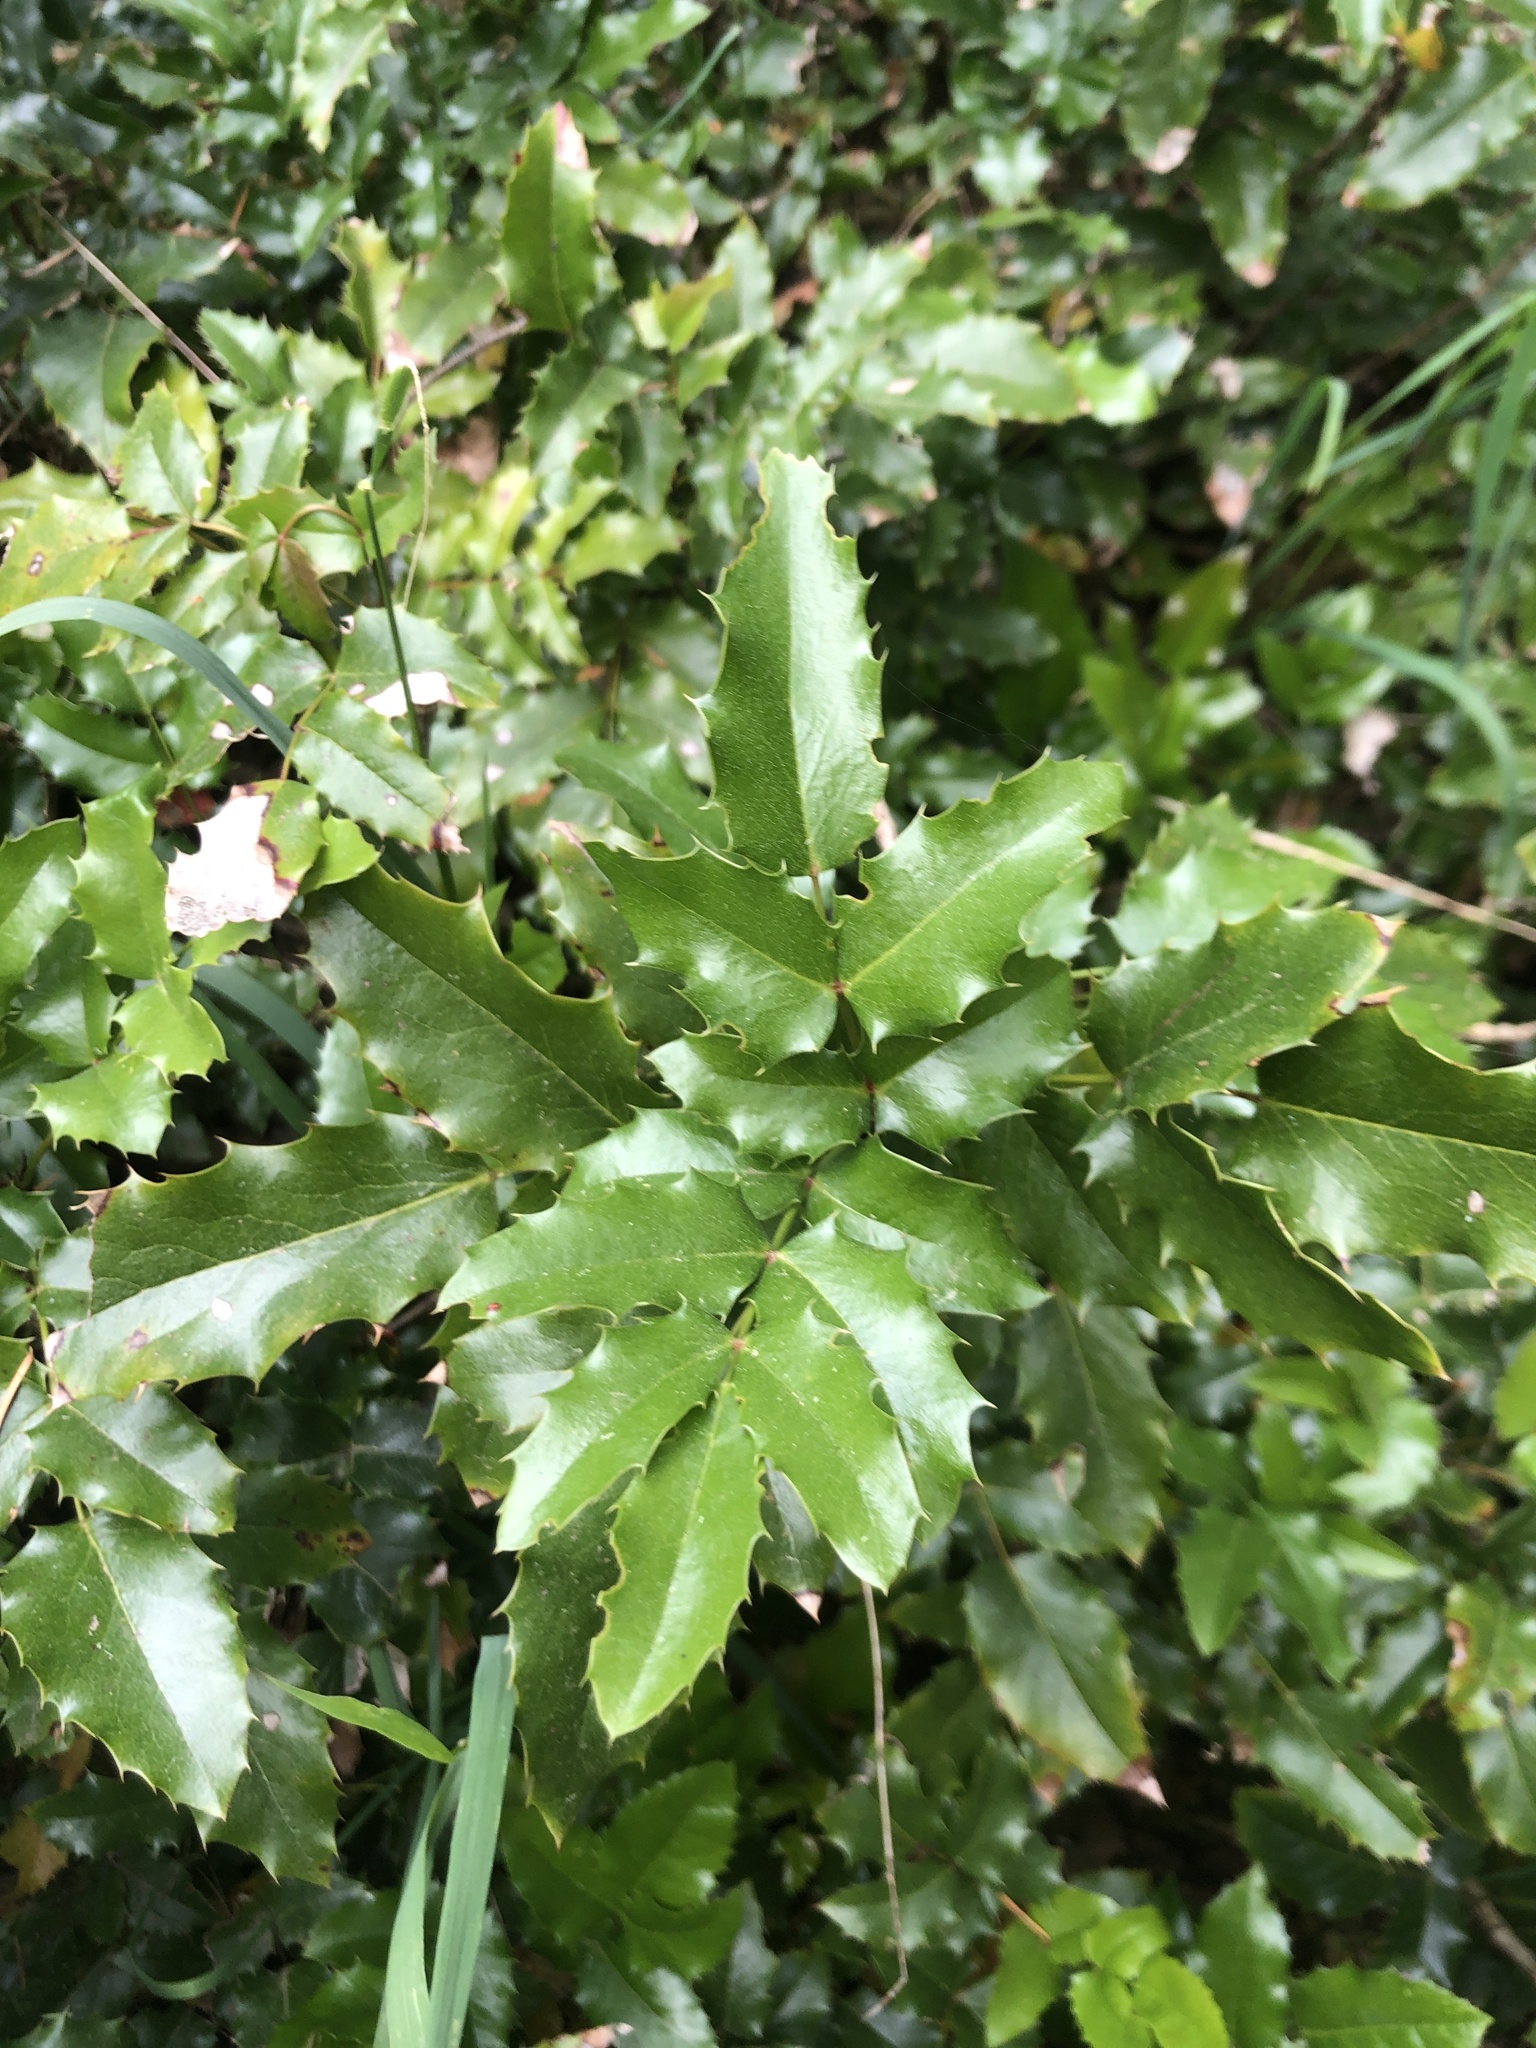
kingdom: Plantae
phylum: Tracheophyta
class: Magnoliopsida
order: Ranunculales
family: Berberidaceae
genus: Mahonia
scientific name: Mahonia aquifolium
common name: Oregon-grape
